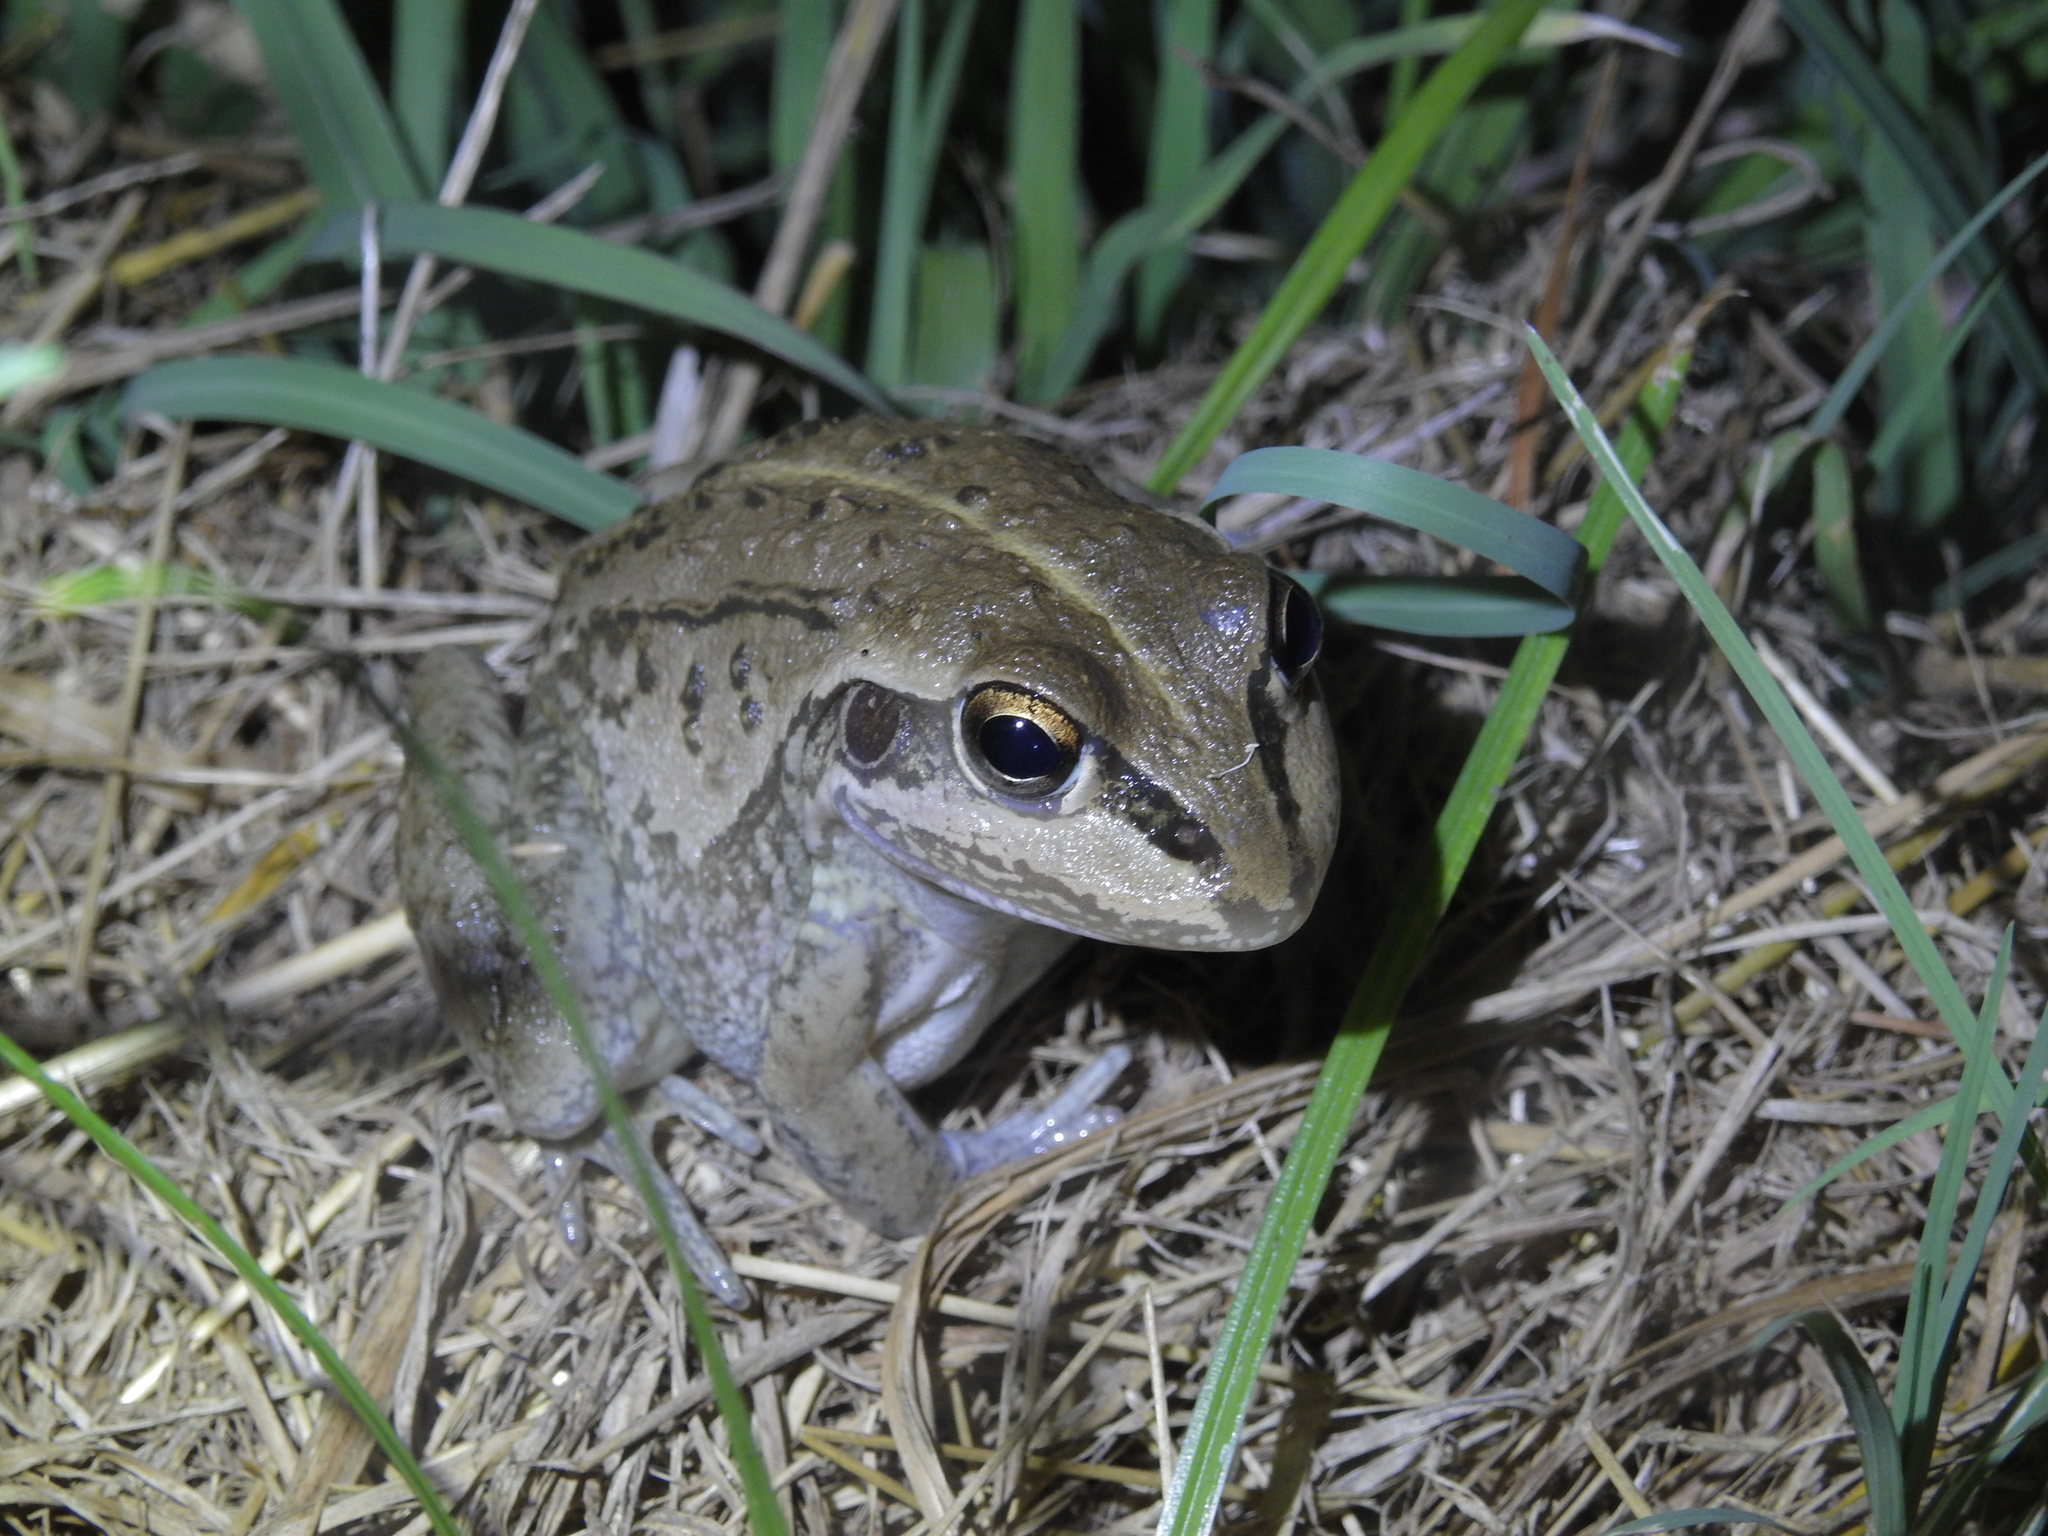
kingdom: Animalia
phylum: Chordata
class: Amphibia
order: Anura
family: Pelodryadidae
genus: Ranoidea
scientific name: Ranoidea alboguttata
